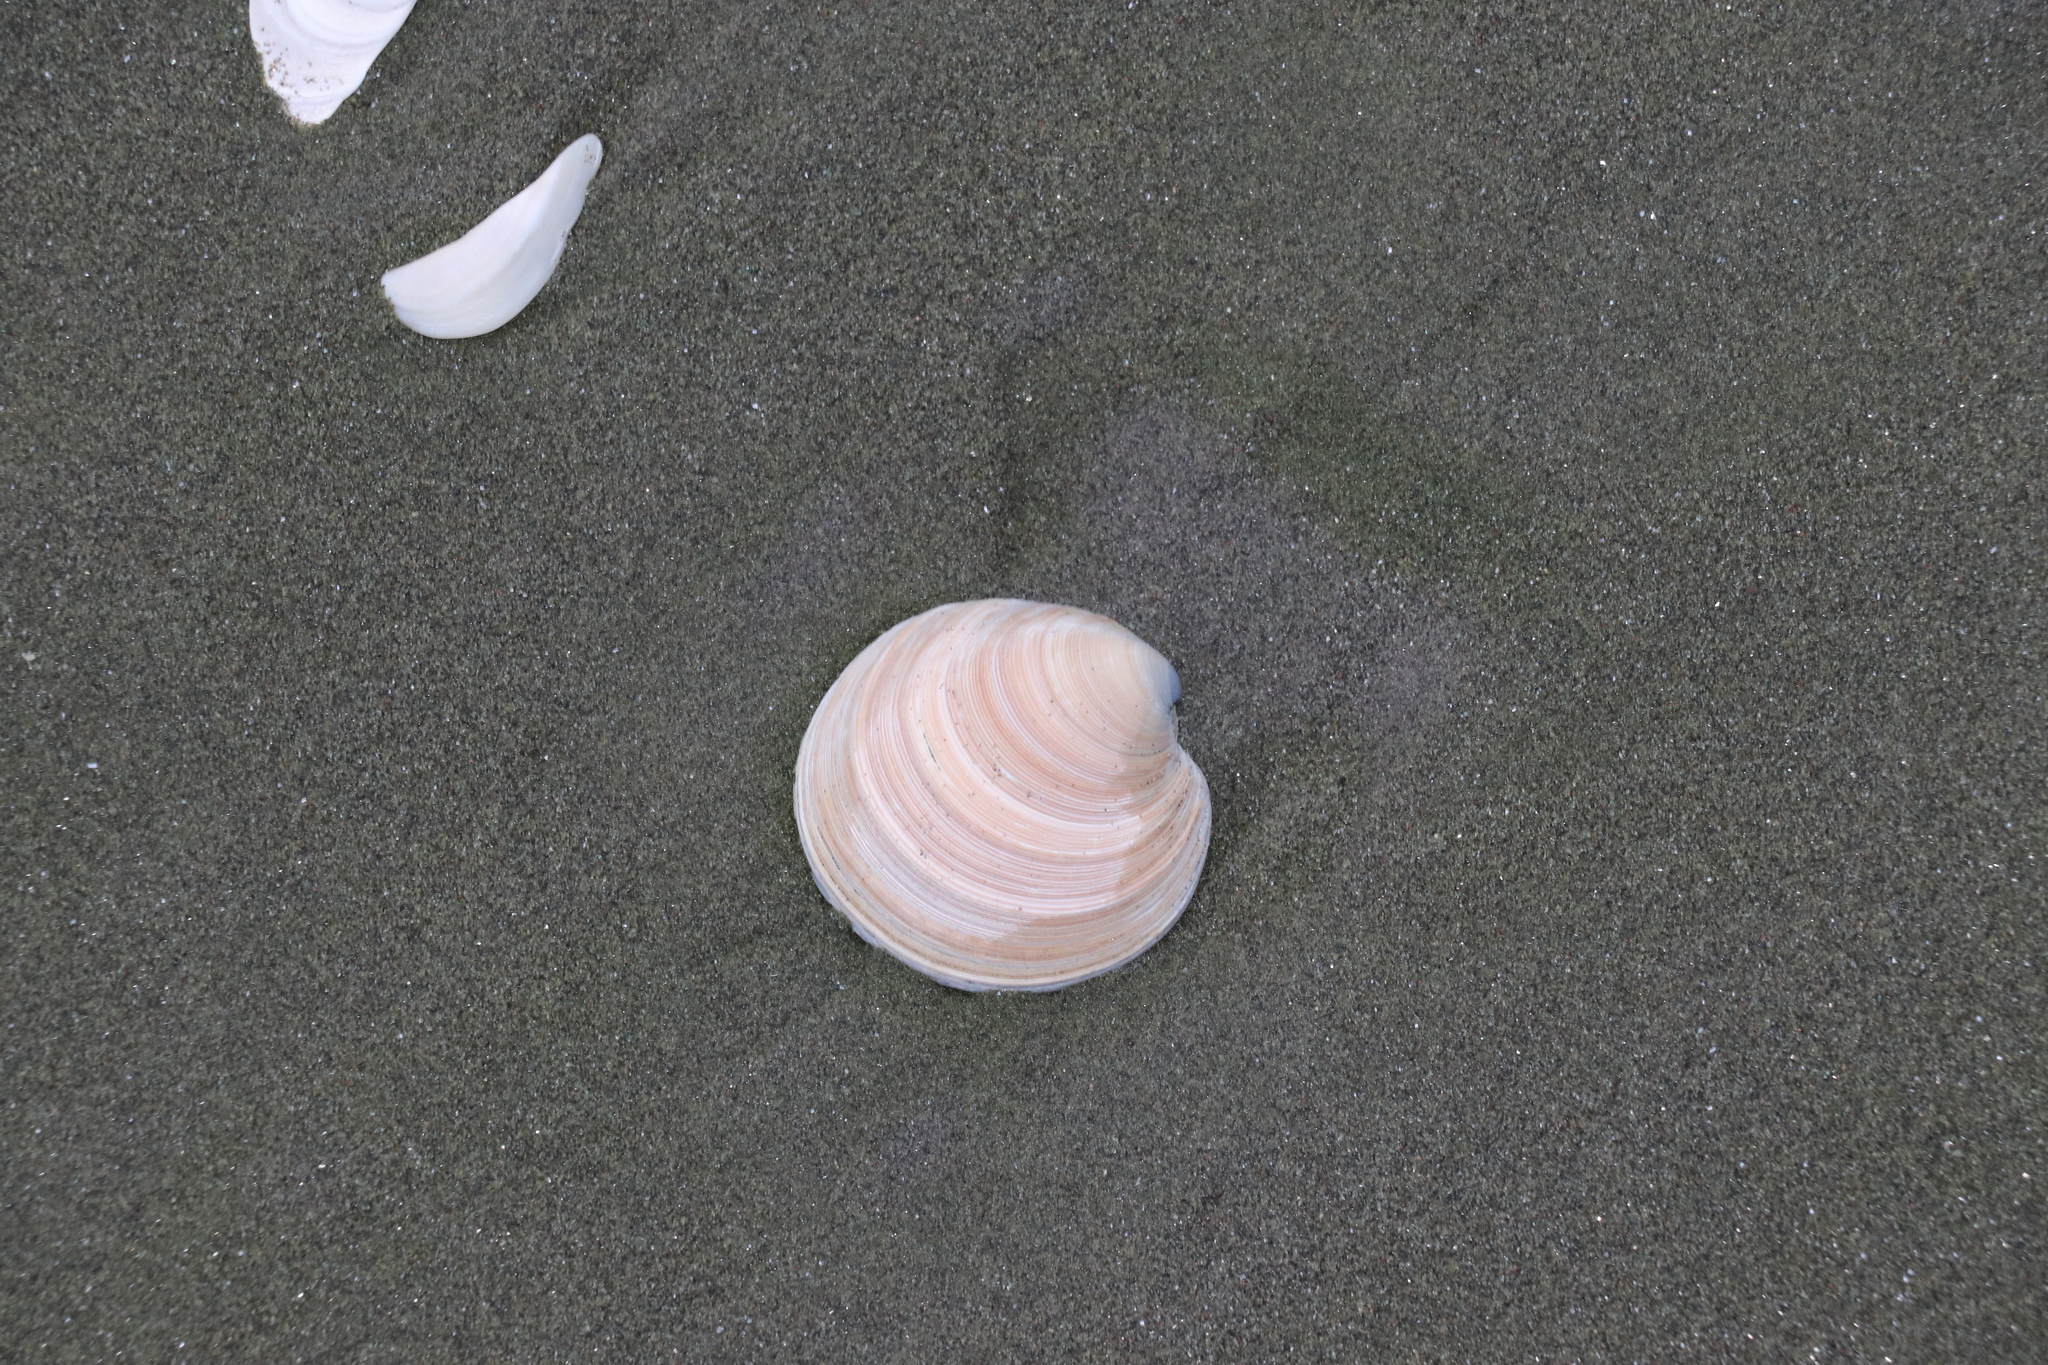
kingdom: Animalia
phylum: Mollusca
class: Bivalvia
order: Venerida
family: Veneridae
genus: Dosinia
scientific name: Dosinia anus
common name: Old-woman dosinia
